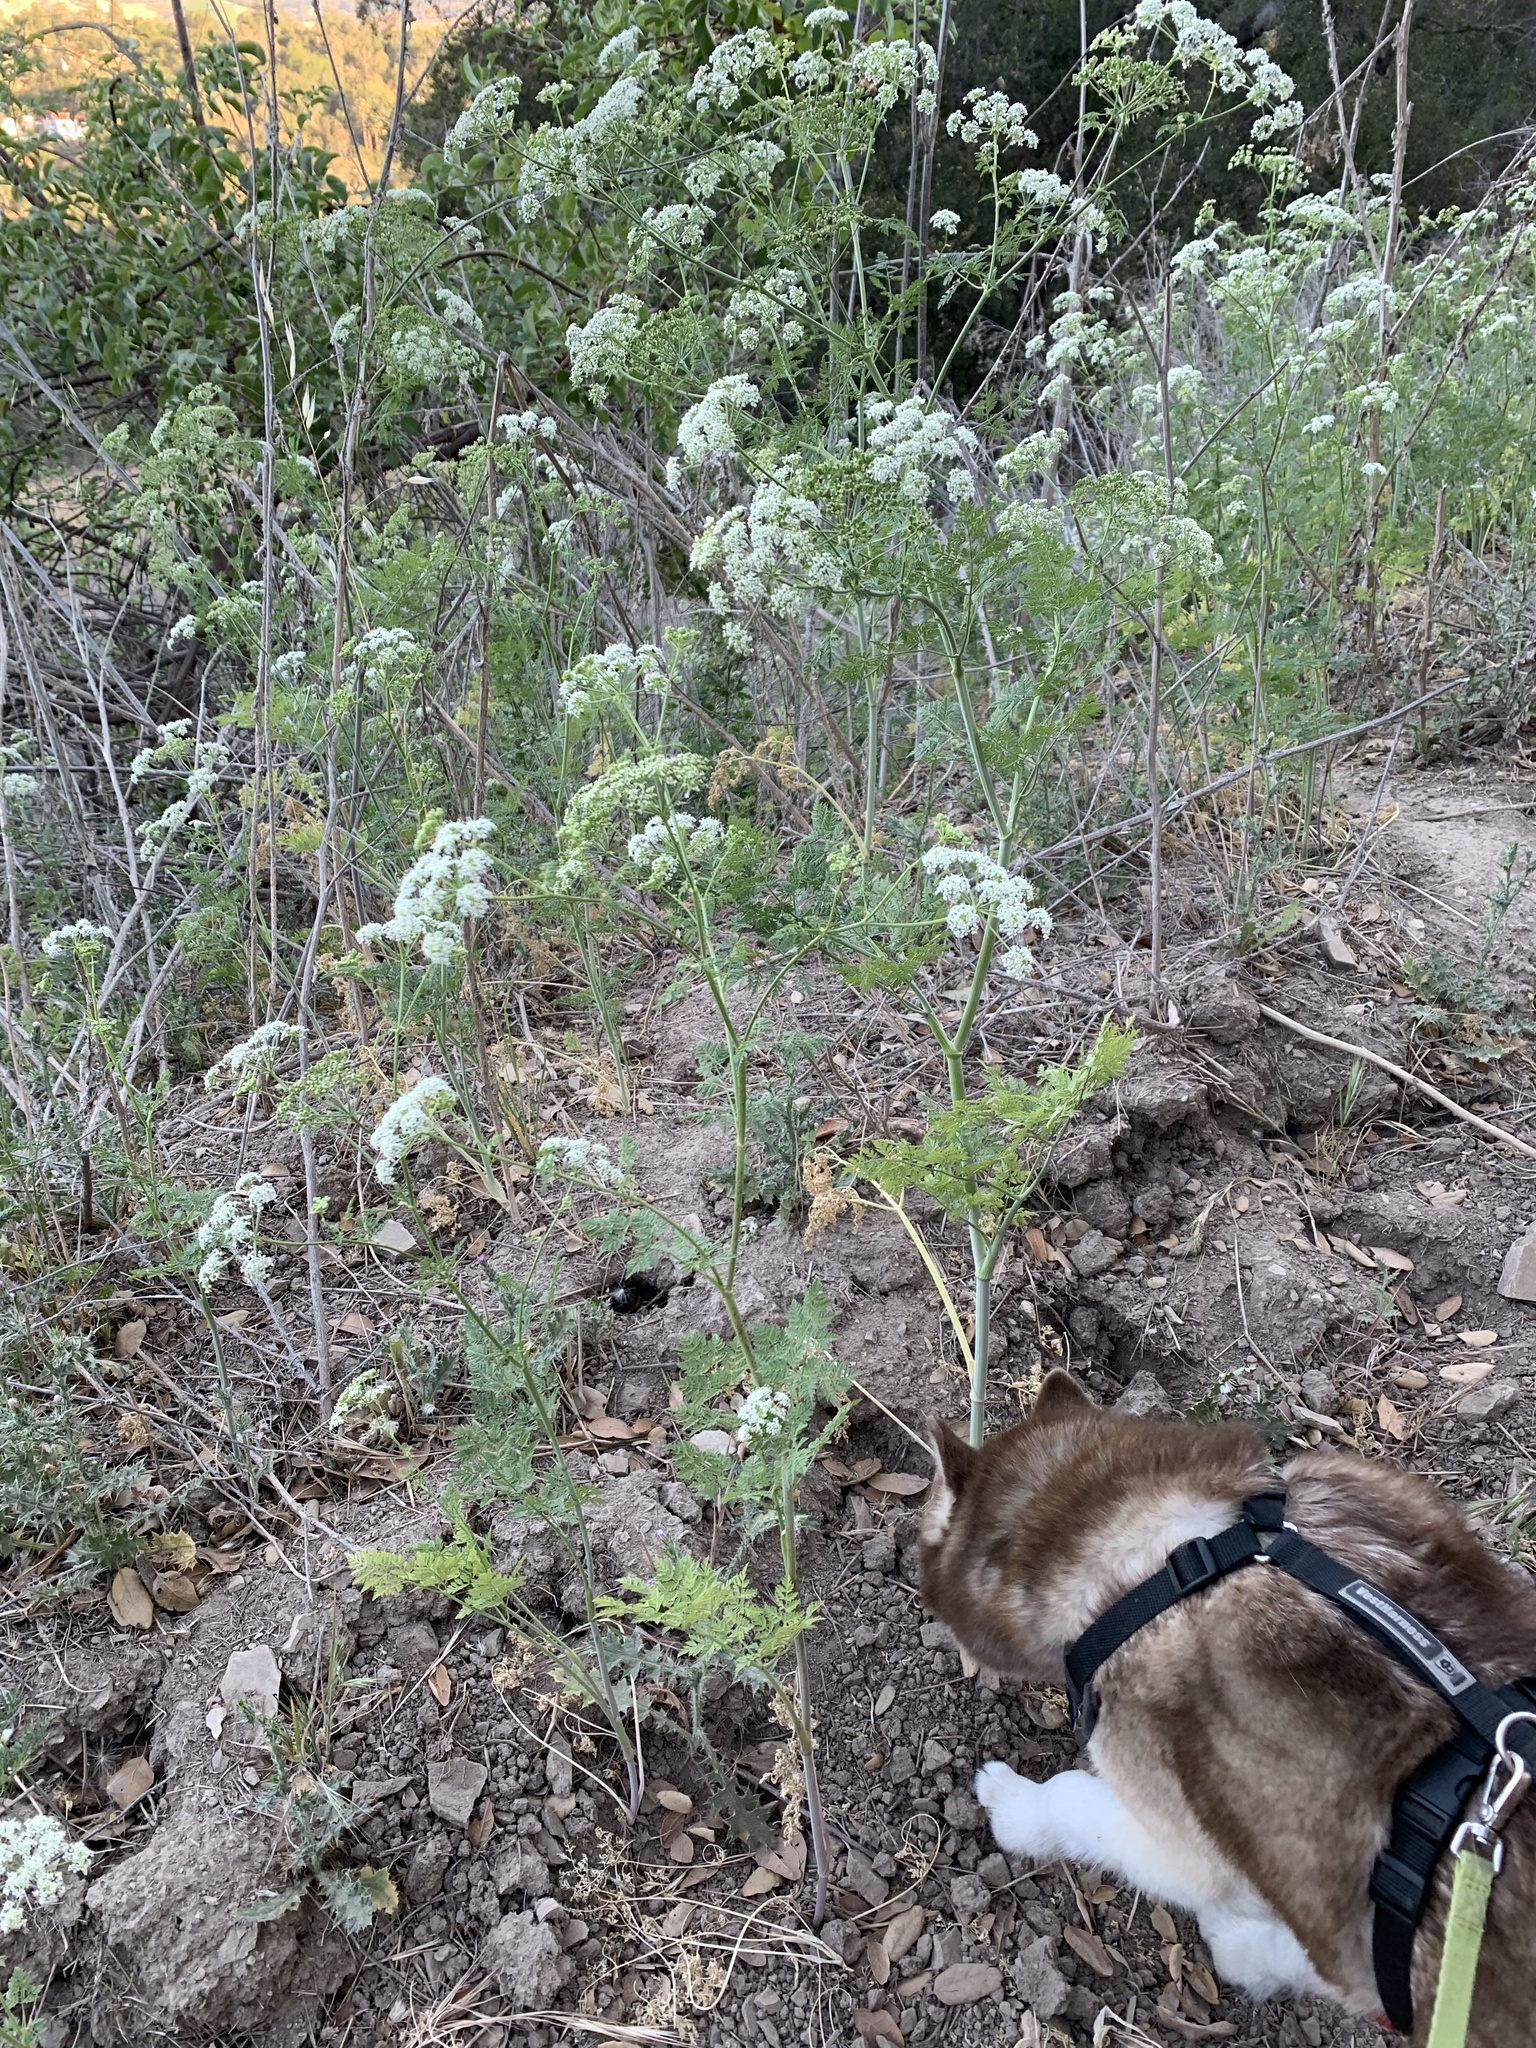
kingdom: Plantae
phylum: Tracheophyta
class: Magnoliopsida
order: Apiales
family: Apiaceae
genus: Conium
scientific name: Conium maculatum
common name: Hemlock
